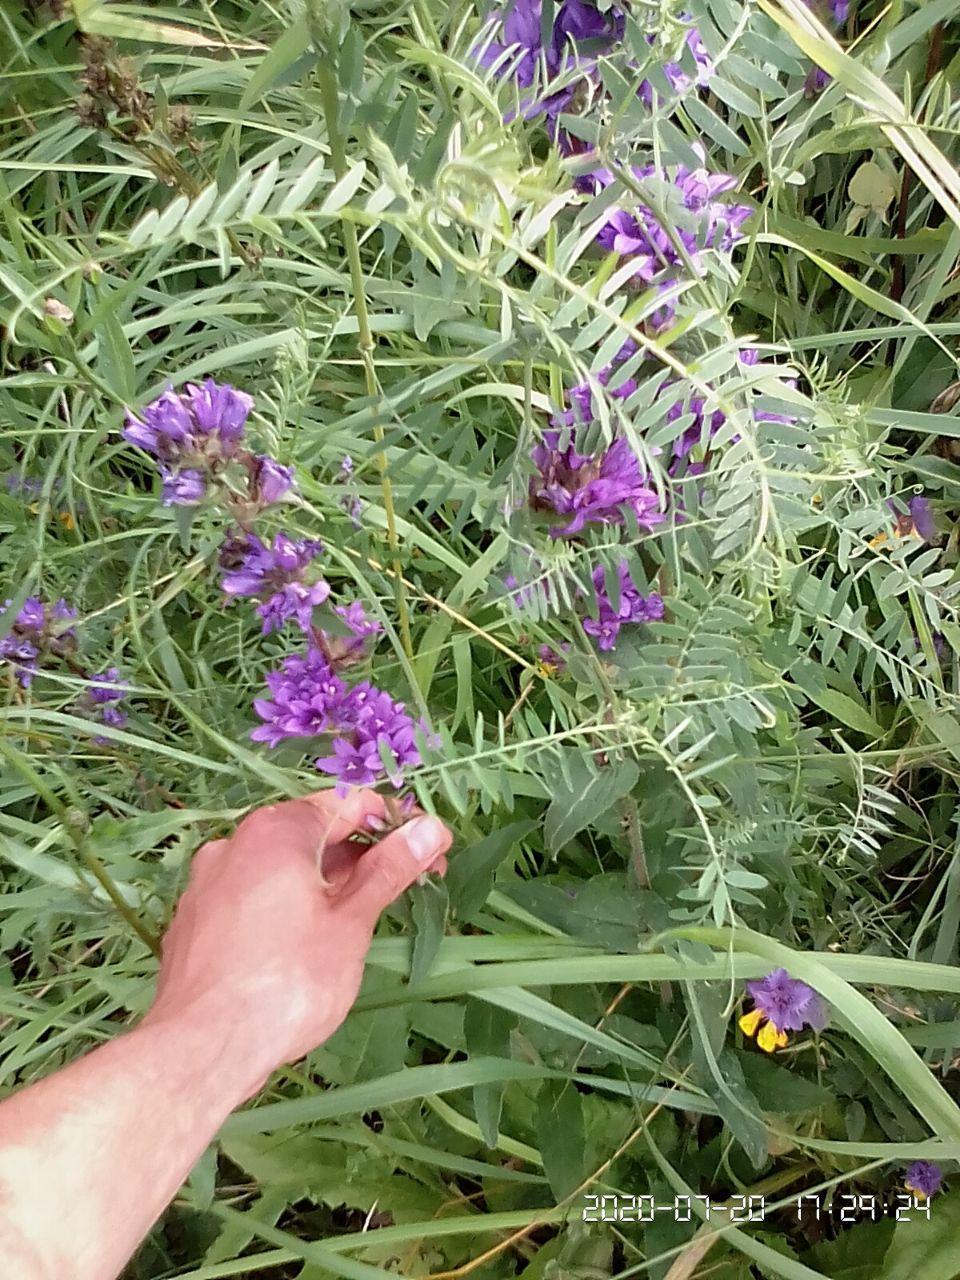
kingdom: Plantae
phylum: Tracheophyta
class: Magnoliopsida
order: Asterales
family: Campanulaceae
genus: Campanula
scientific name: Campanula glomerata
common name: Clustered bellflower
